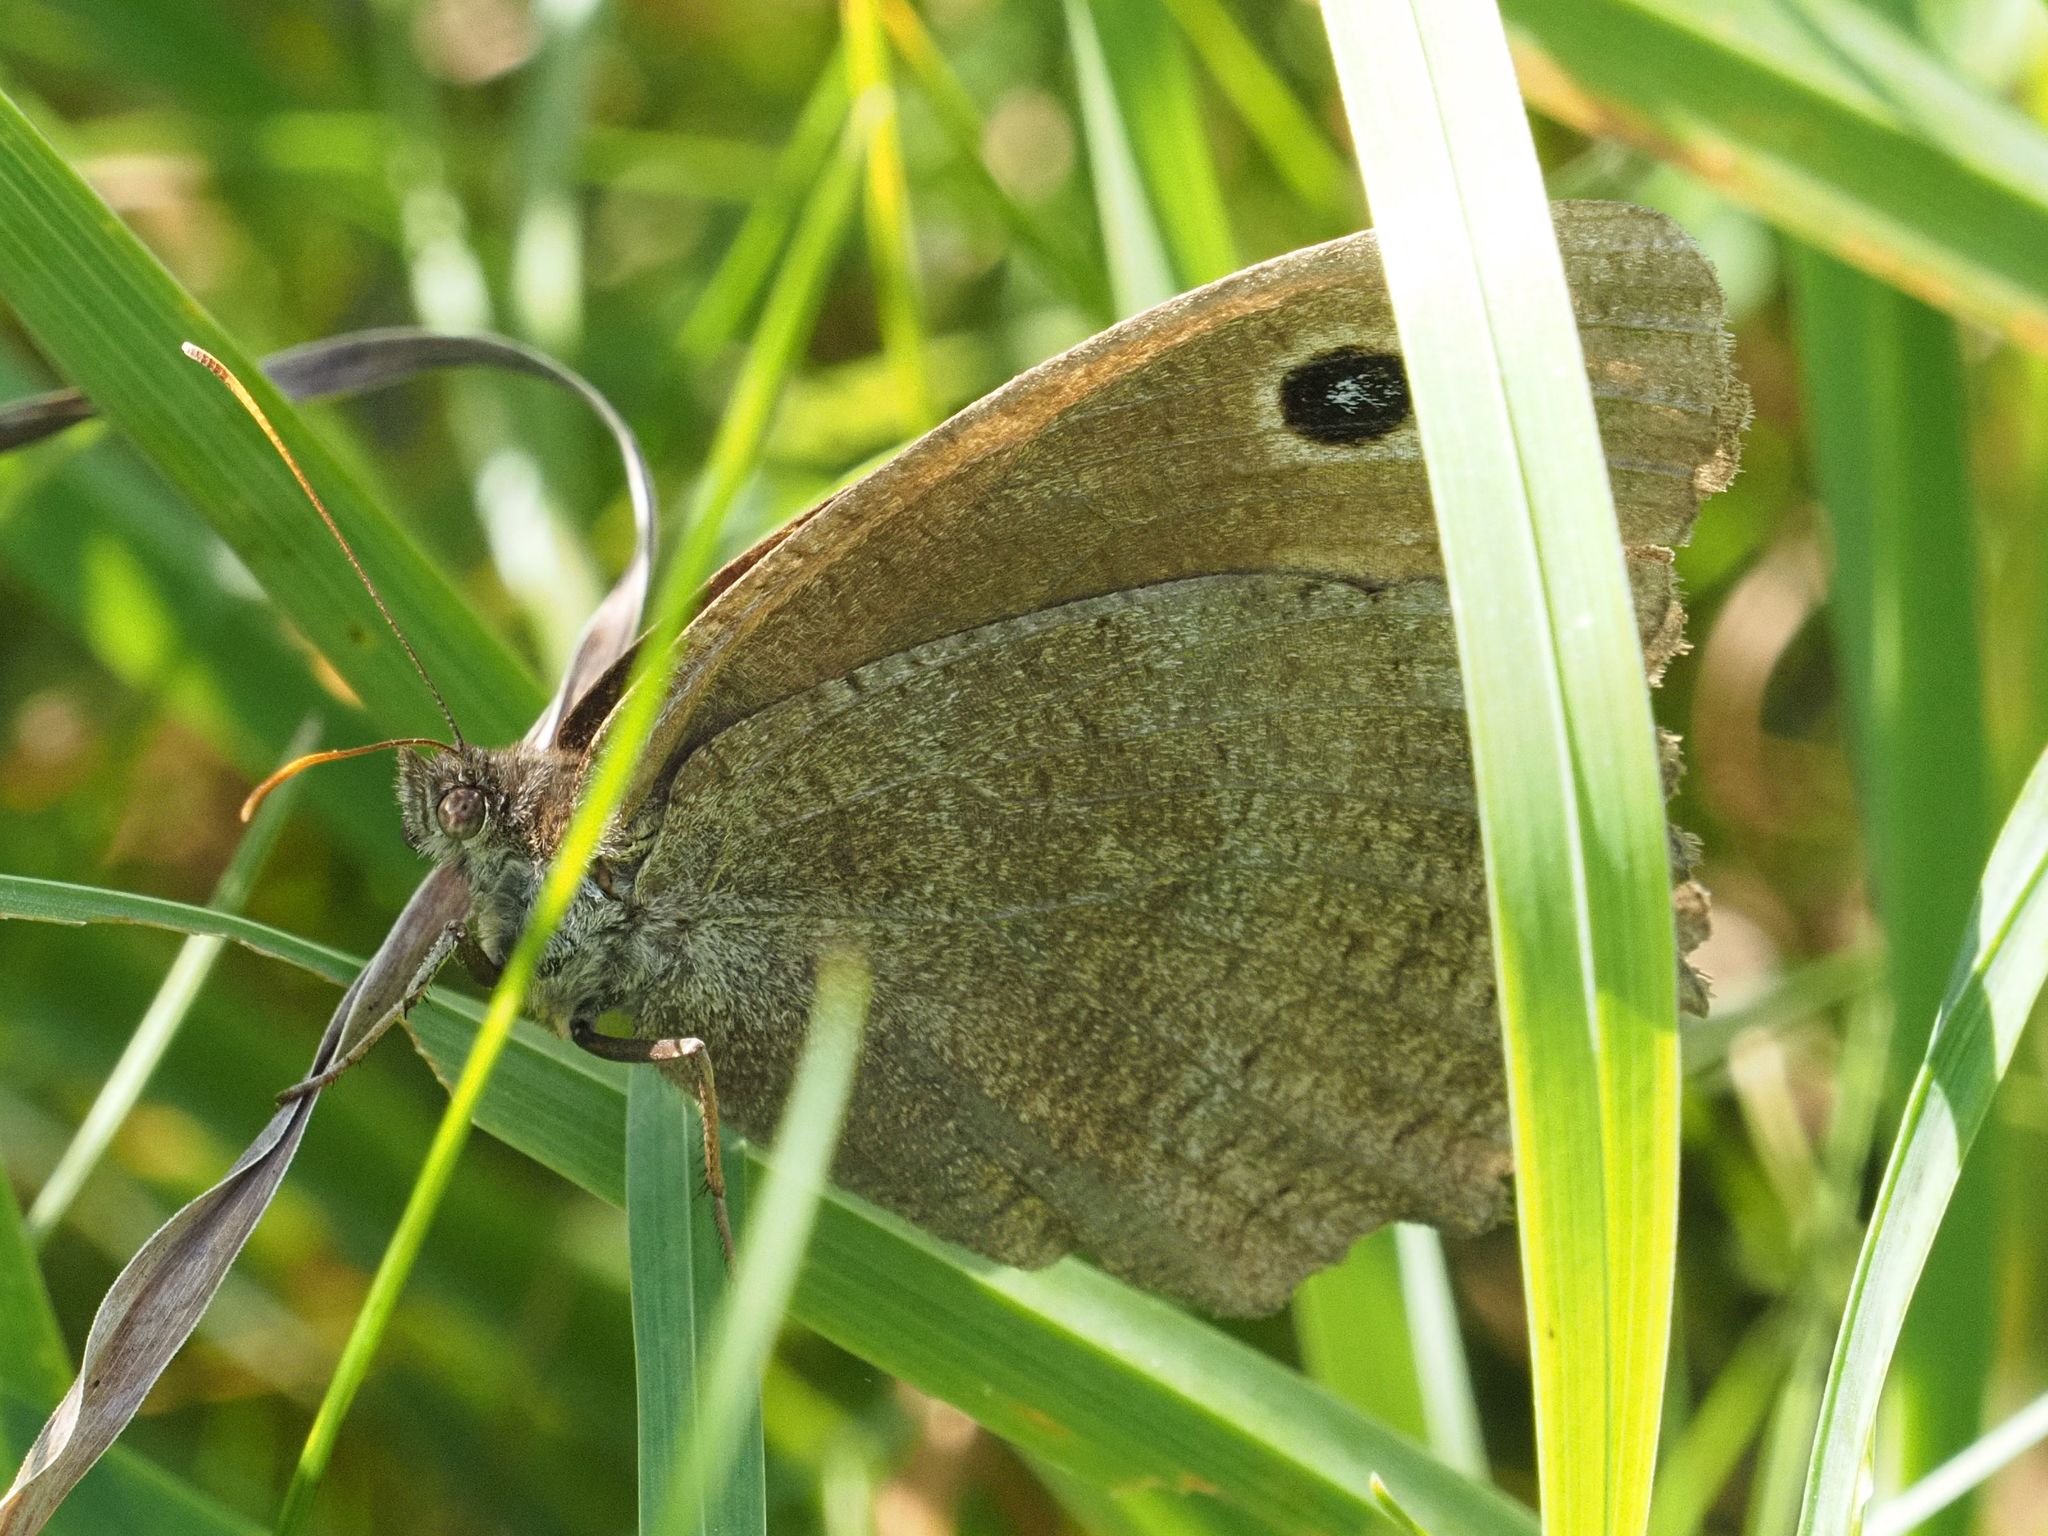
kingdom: Animalia
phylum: Arthropoda
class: Insecta
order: Lepidoptera
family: Nymphalidae
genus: Minois
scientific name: Minois dryas
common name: Dryad
